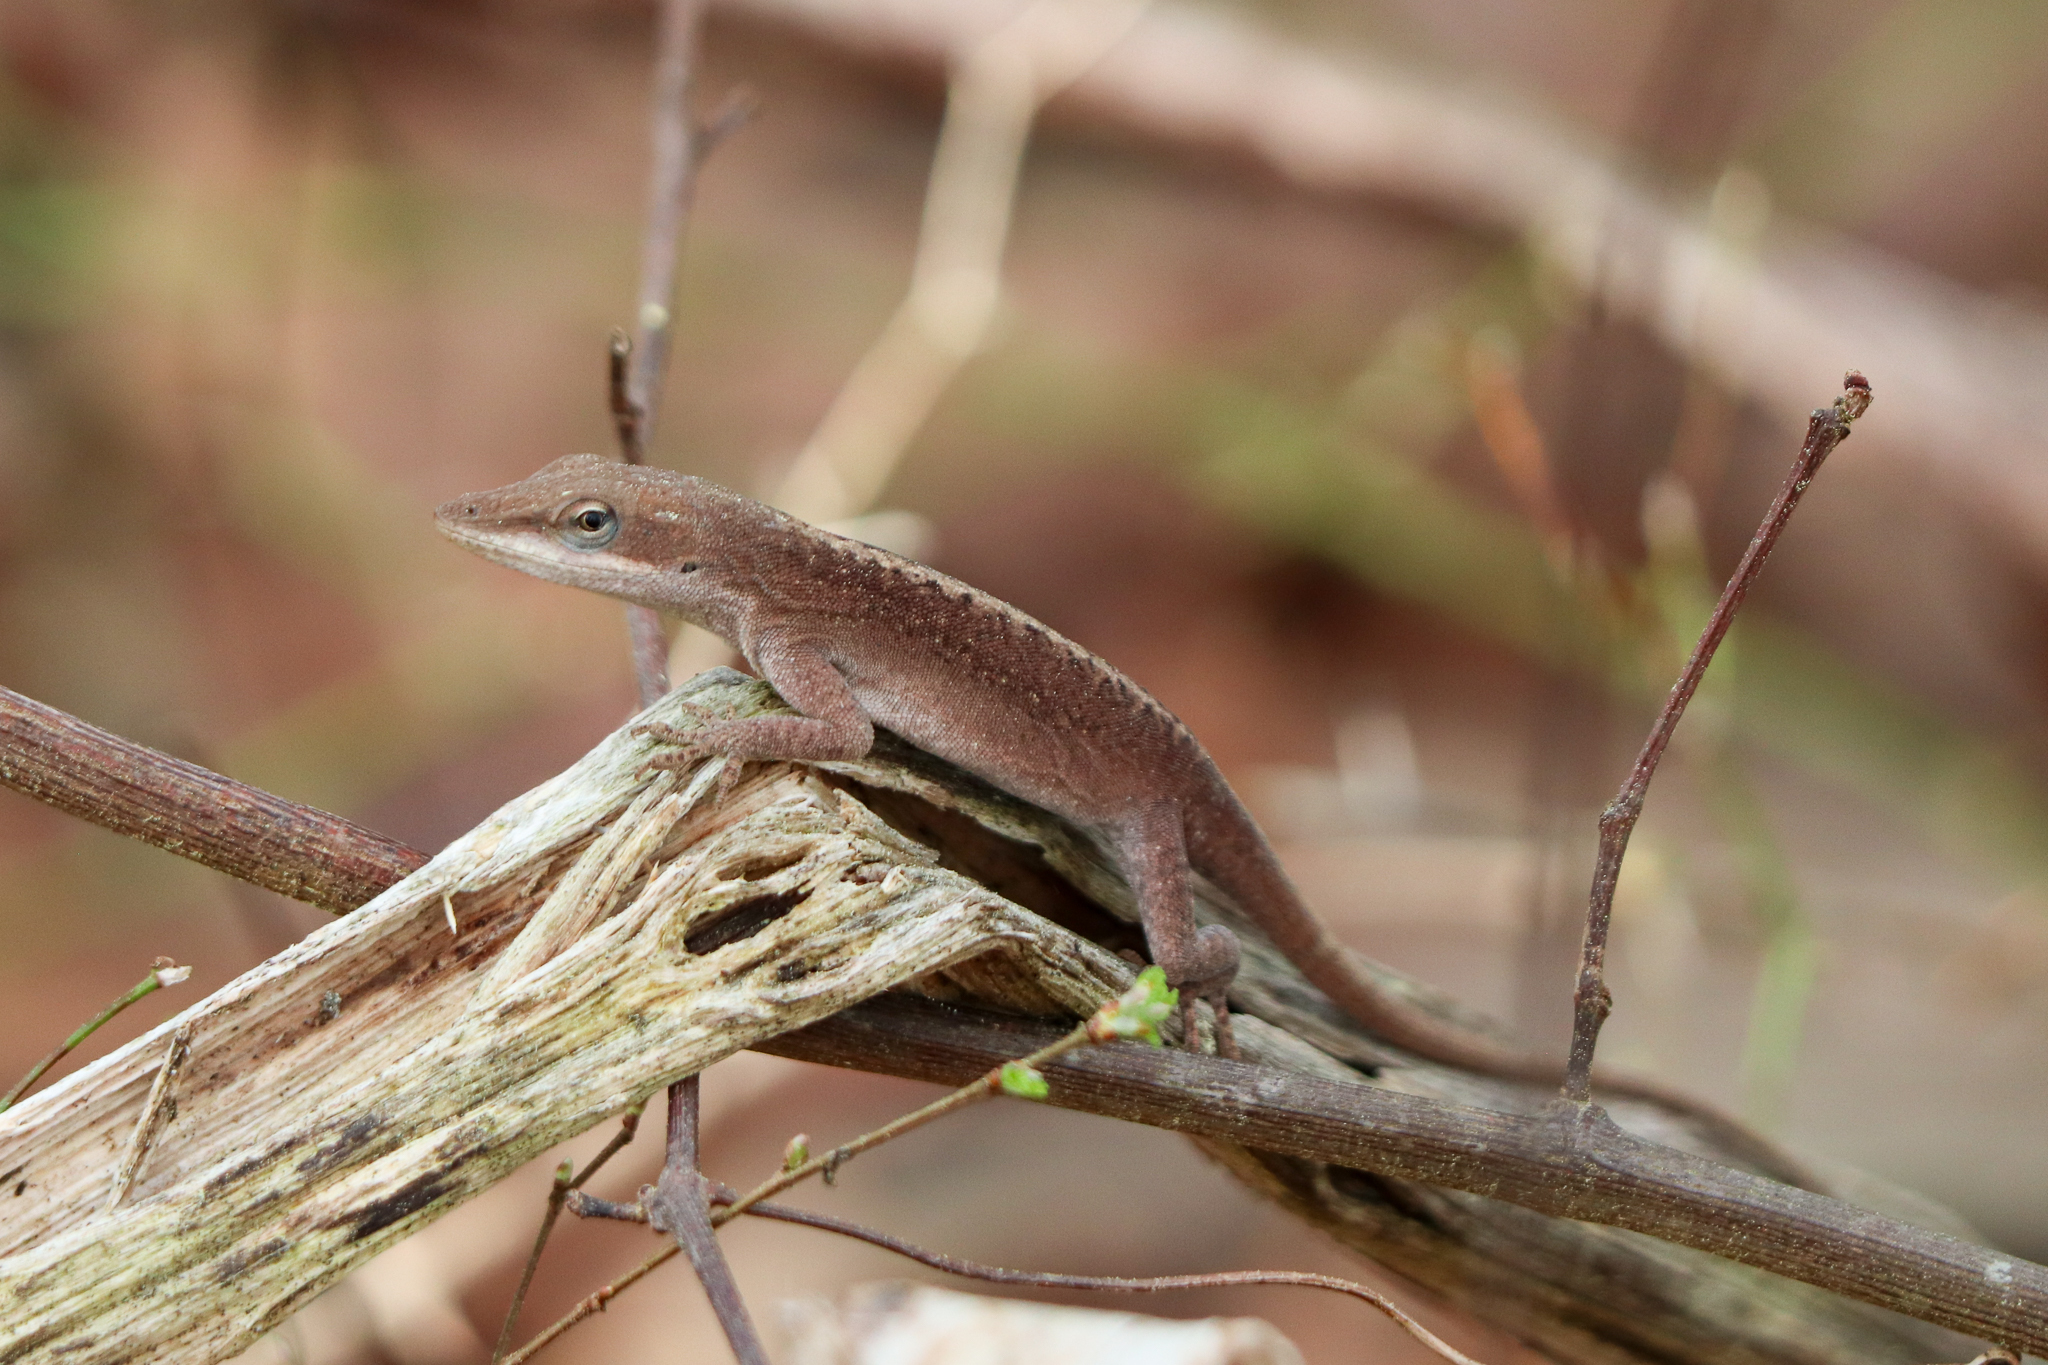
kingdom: Animalia
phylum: Chordata
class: Squamata
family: Dactyloidae
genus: Anolis
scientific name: Anolis carolinensis
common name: Green anole
